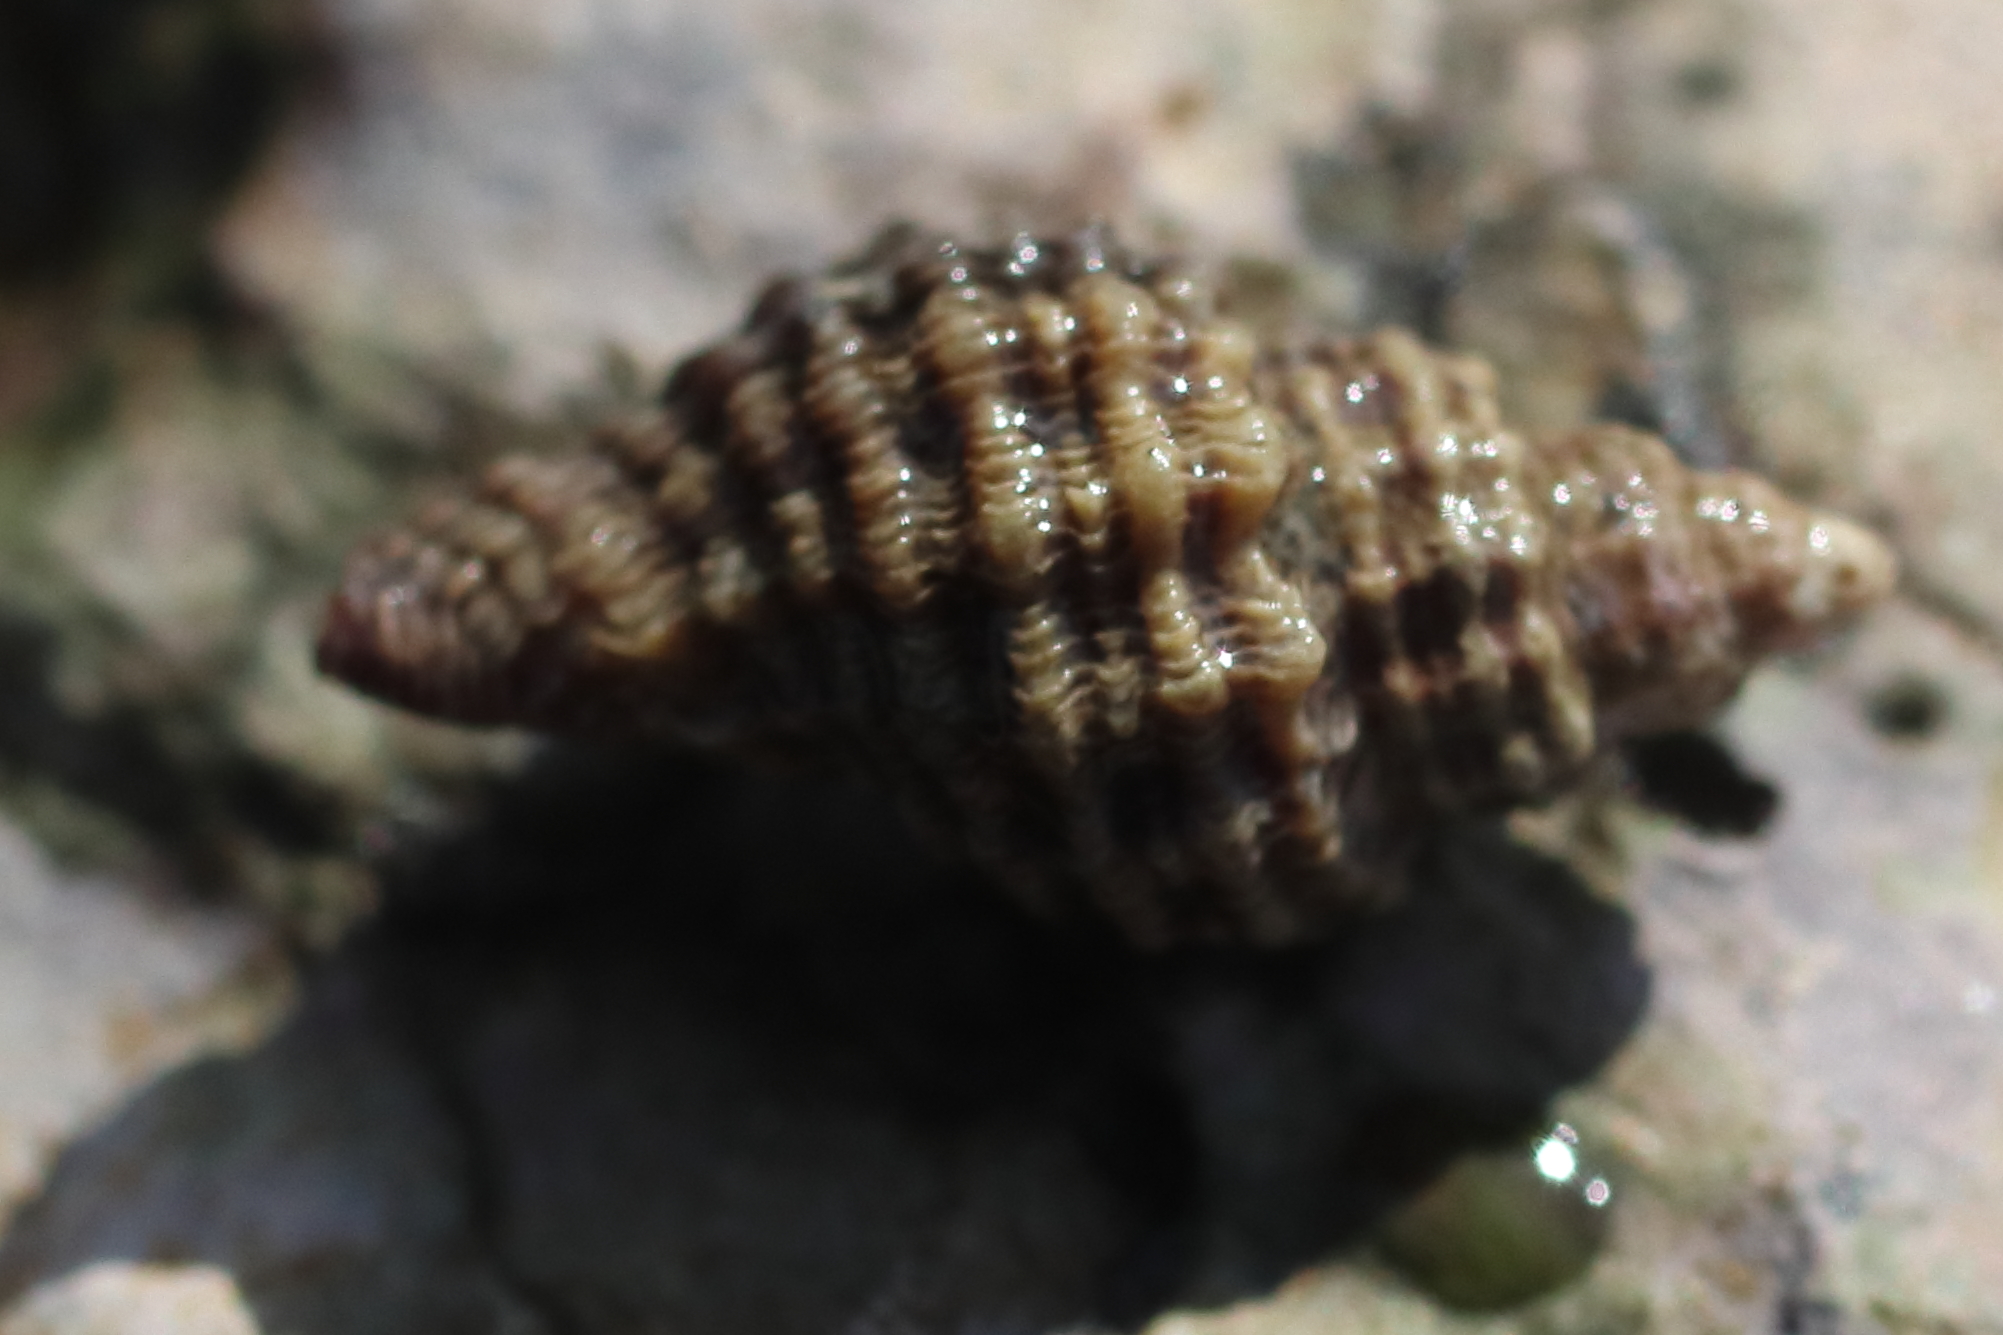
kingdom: Animalia
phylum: Mollusca
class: Gastropoda
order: Neogastropoda
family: Muricidae
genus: Paciocinebrina
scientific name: Paciocinebrina interfossa
